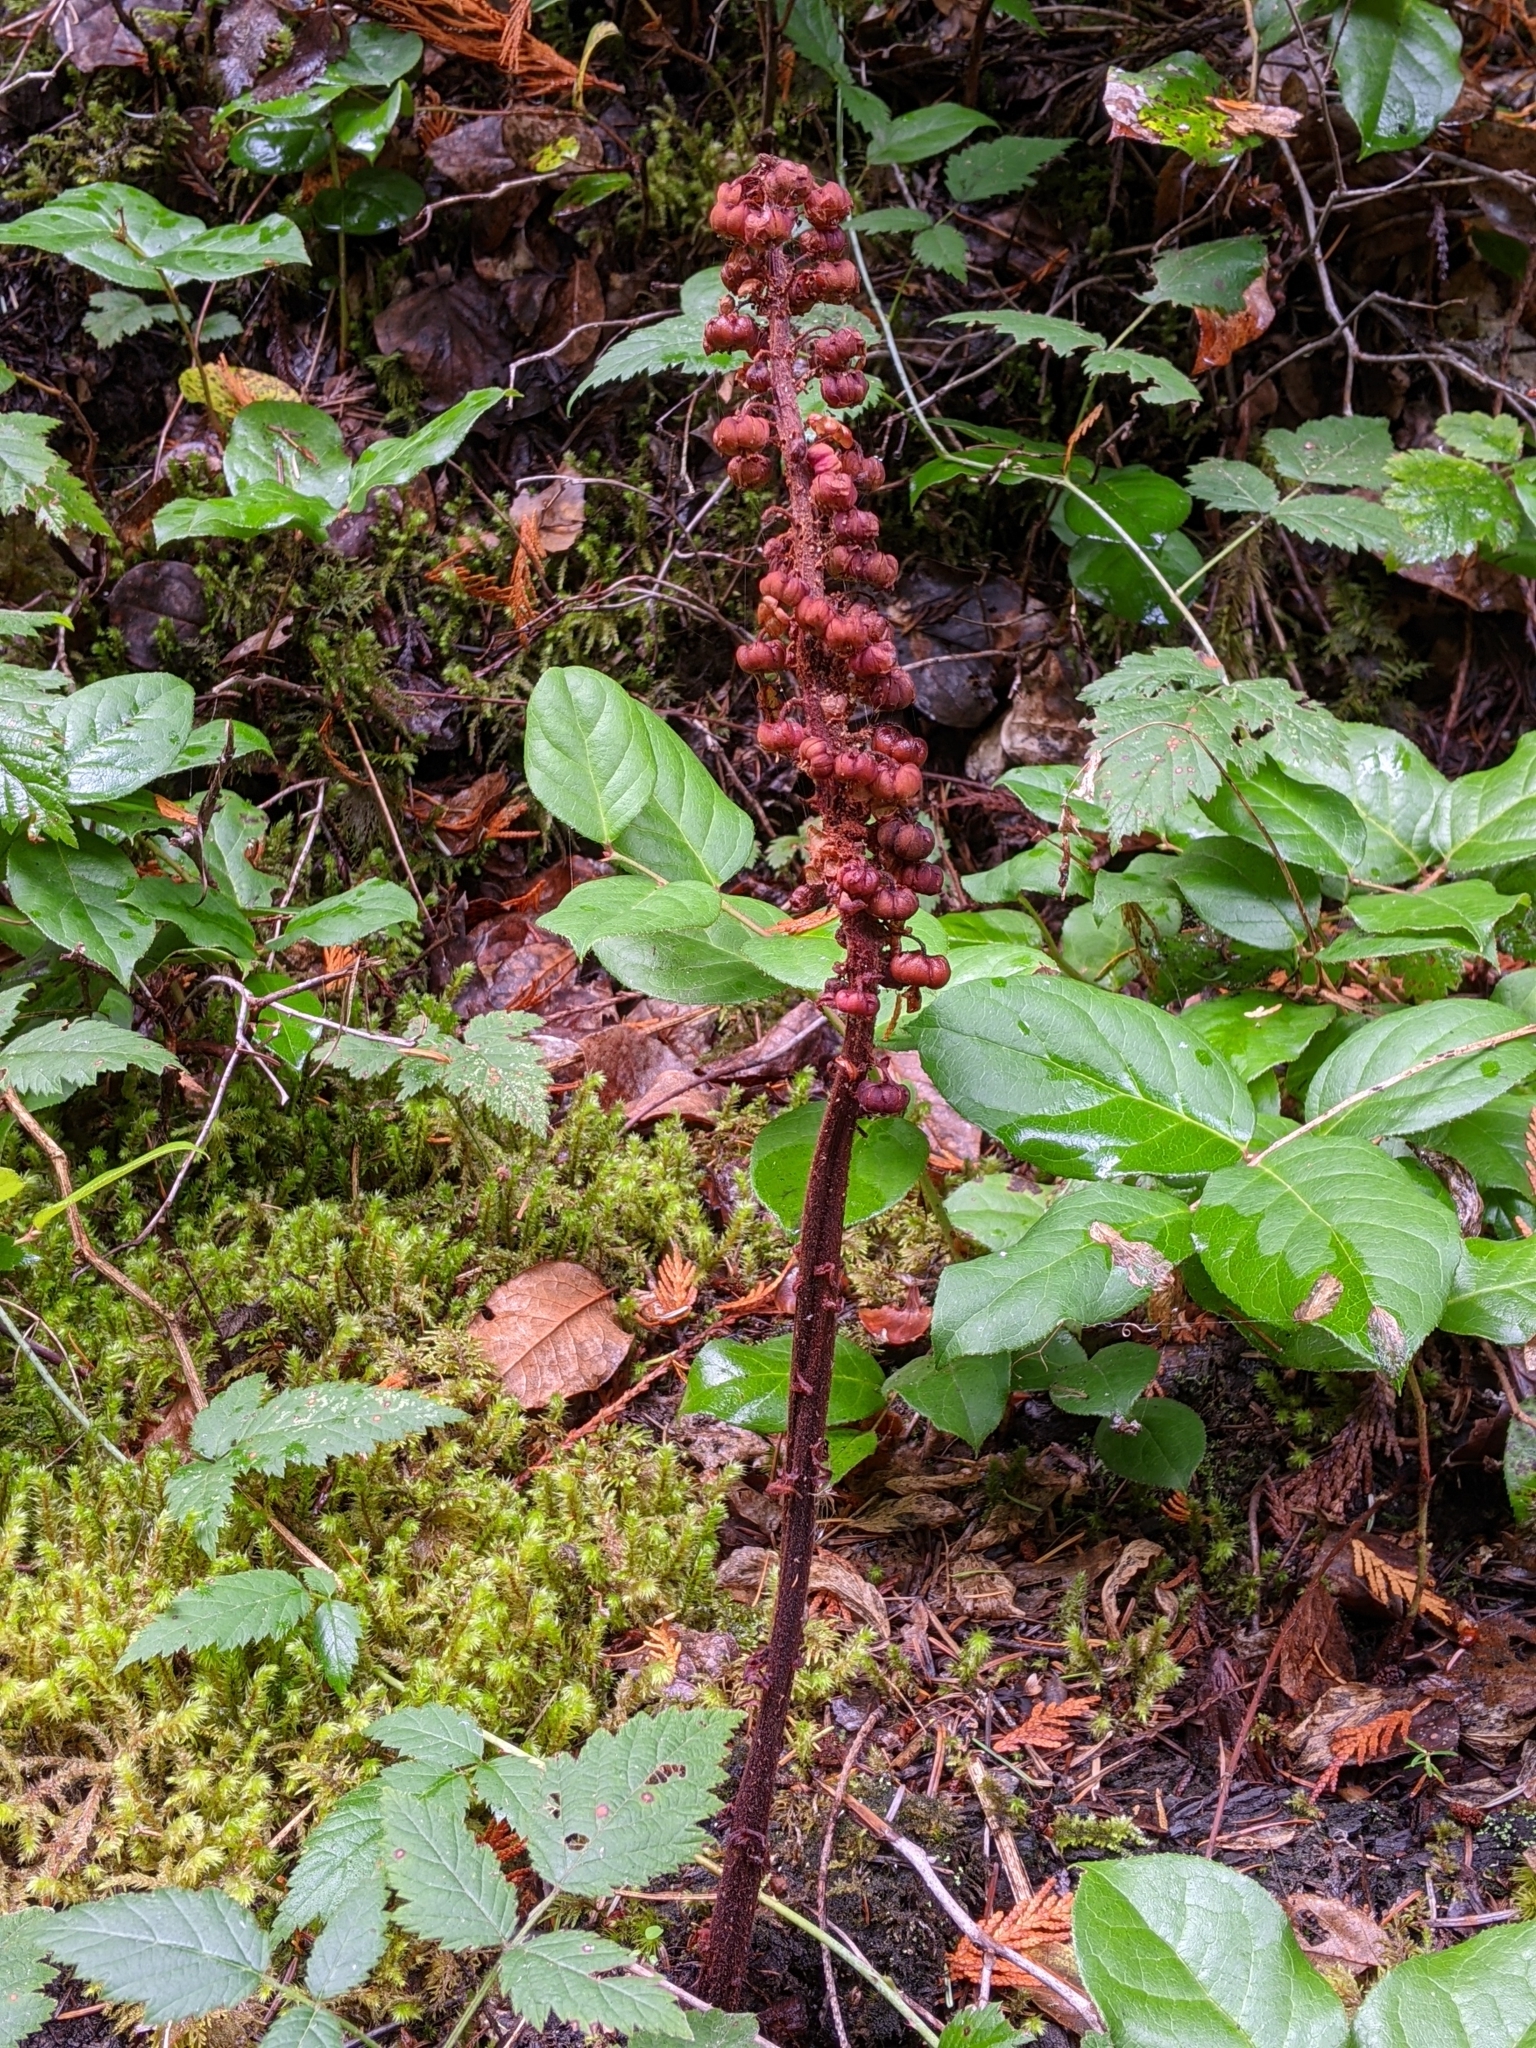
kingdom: Plantae
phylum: Tracheophyta
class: Magnoliopsida
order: Ericales
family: Ericaceae
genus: Pterospora
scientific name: Pterospora andromedea
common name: Giant bird's-nest
